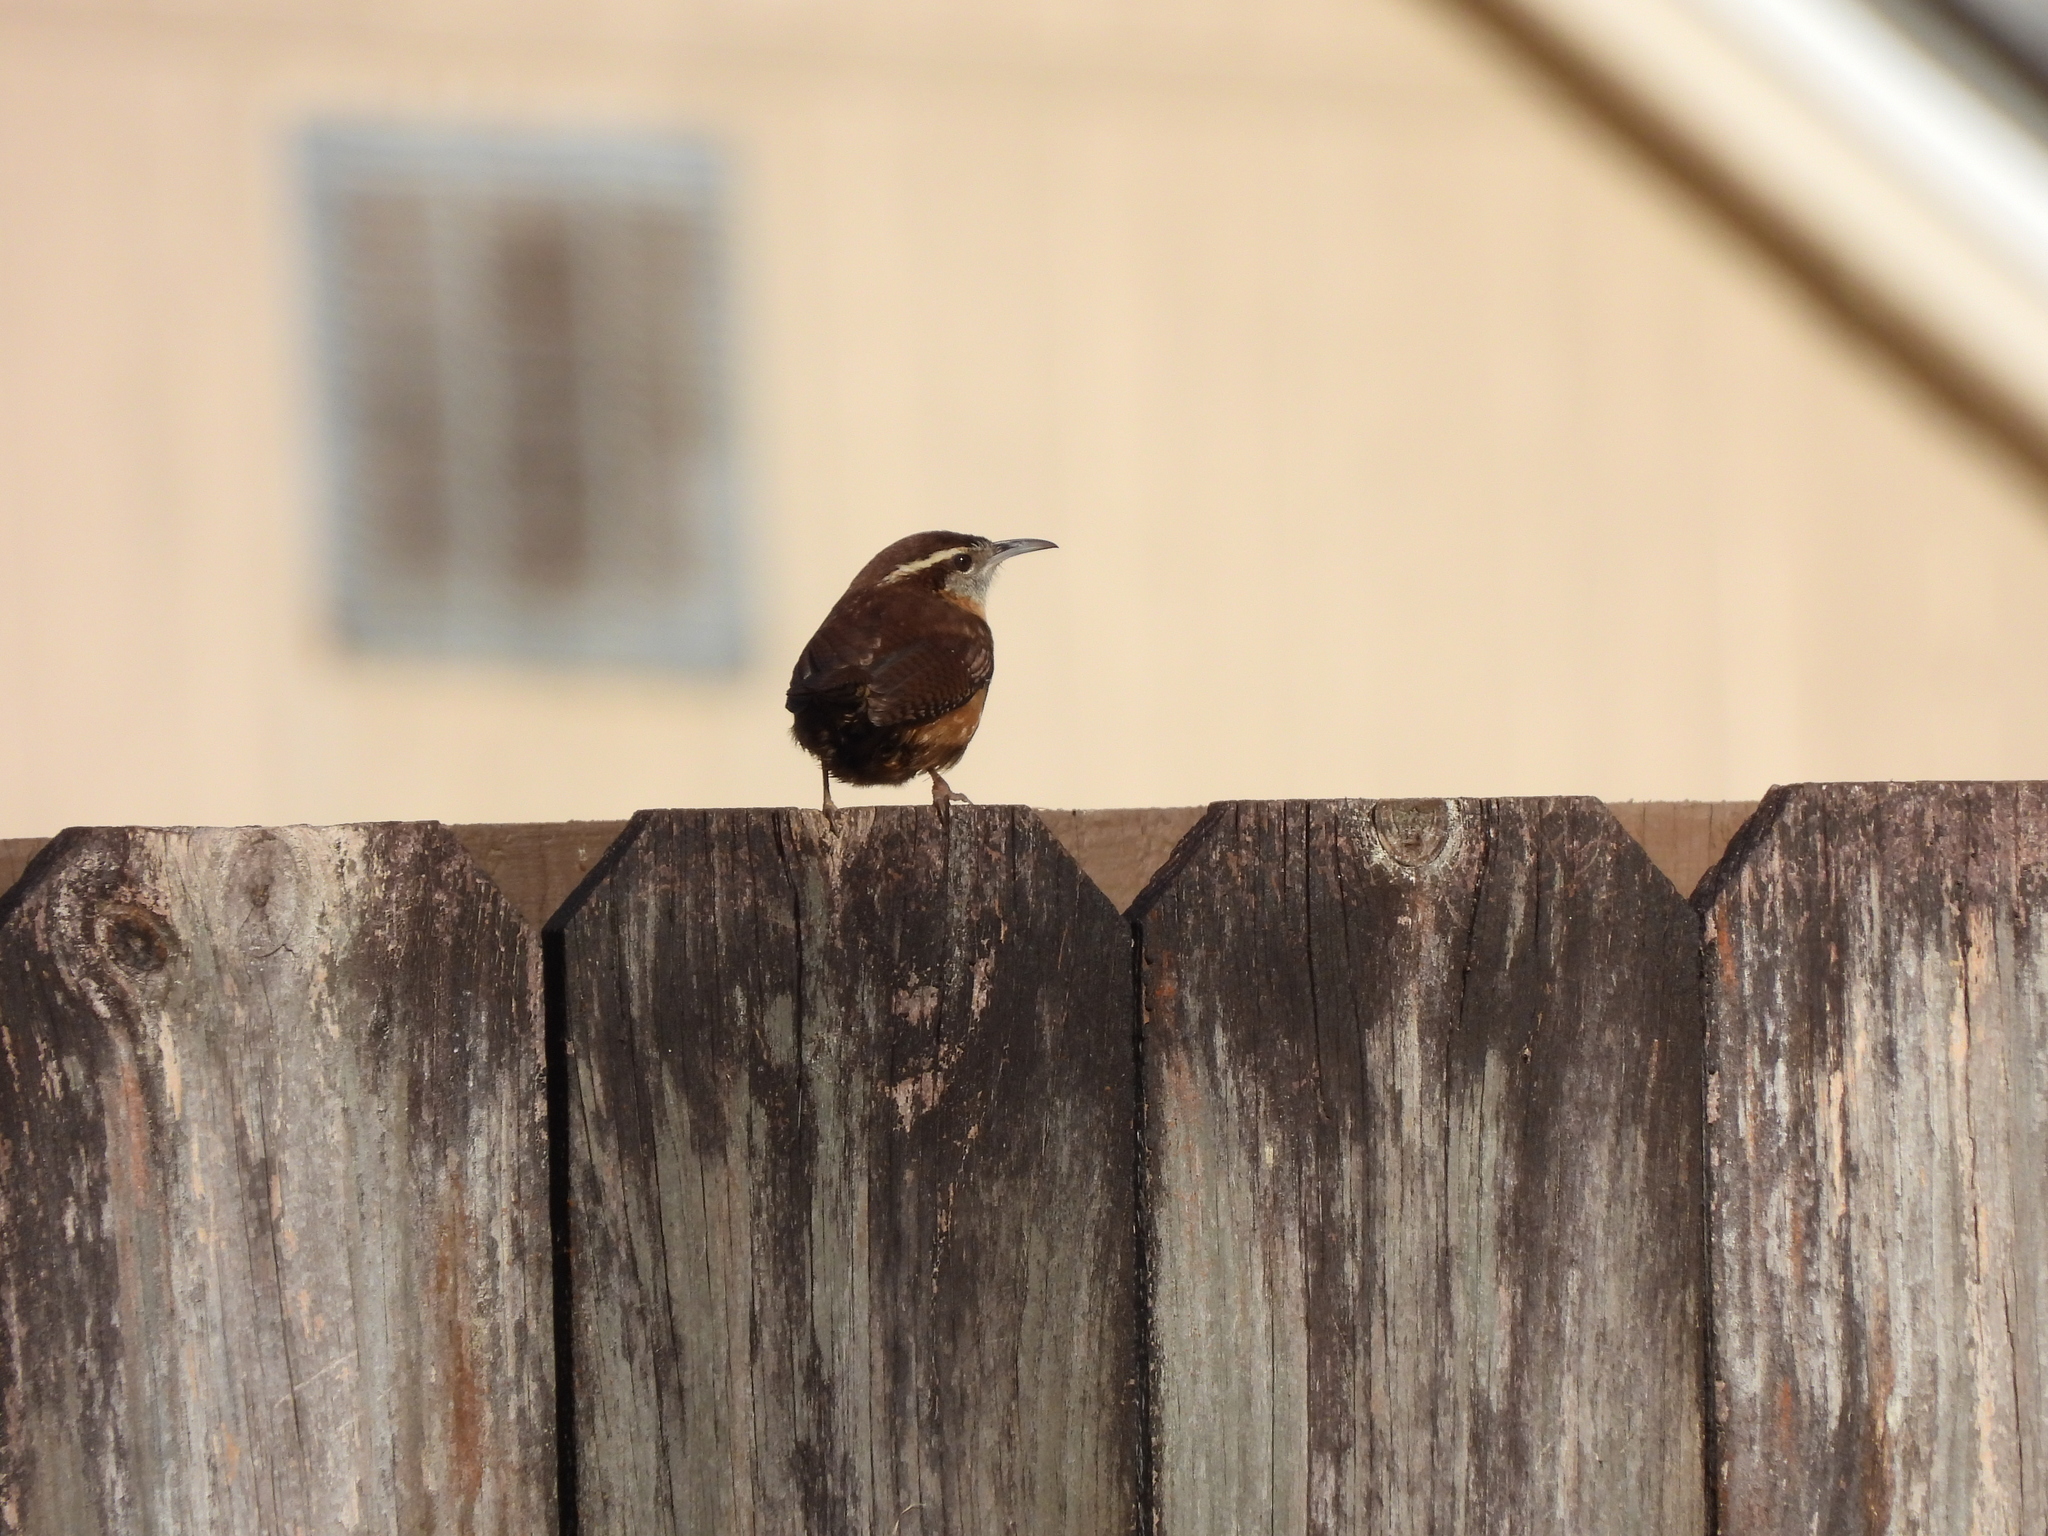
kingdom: Animalia
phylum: Chordata
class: Aves
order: Passeriformes
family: Troglodytidae
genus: Thryothorus
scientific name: Thryothorus ludovicianus
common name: Carolina wren
